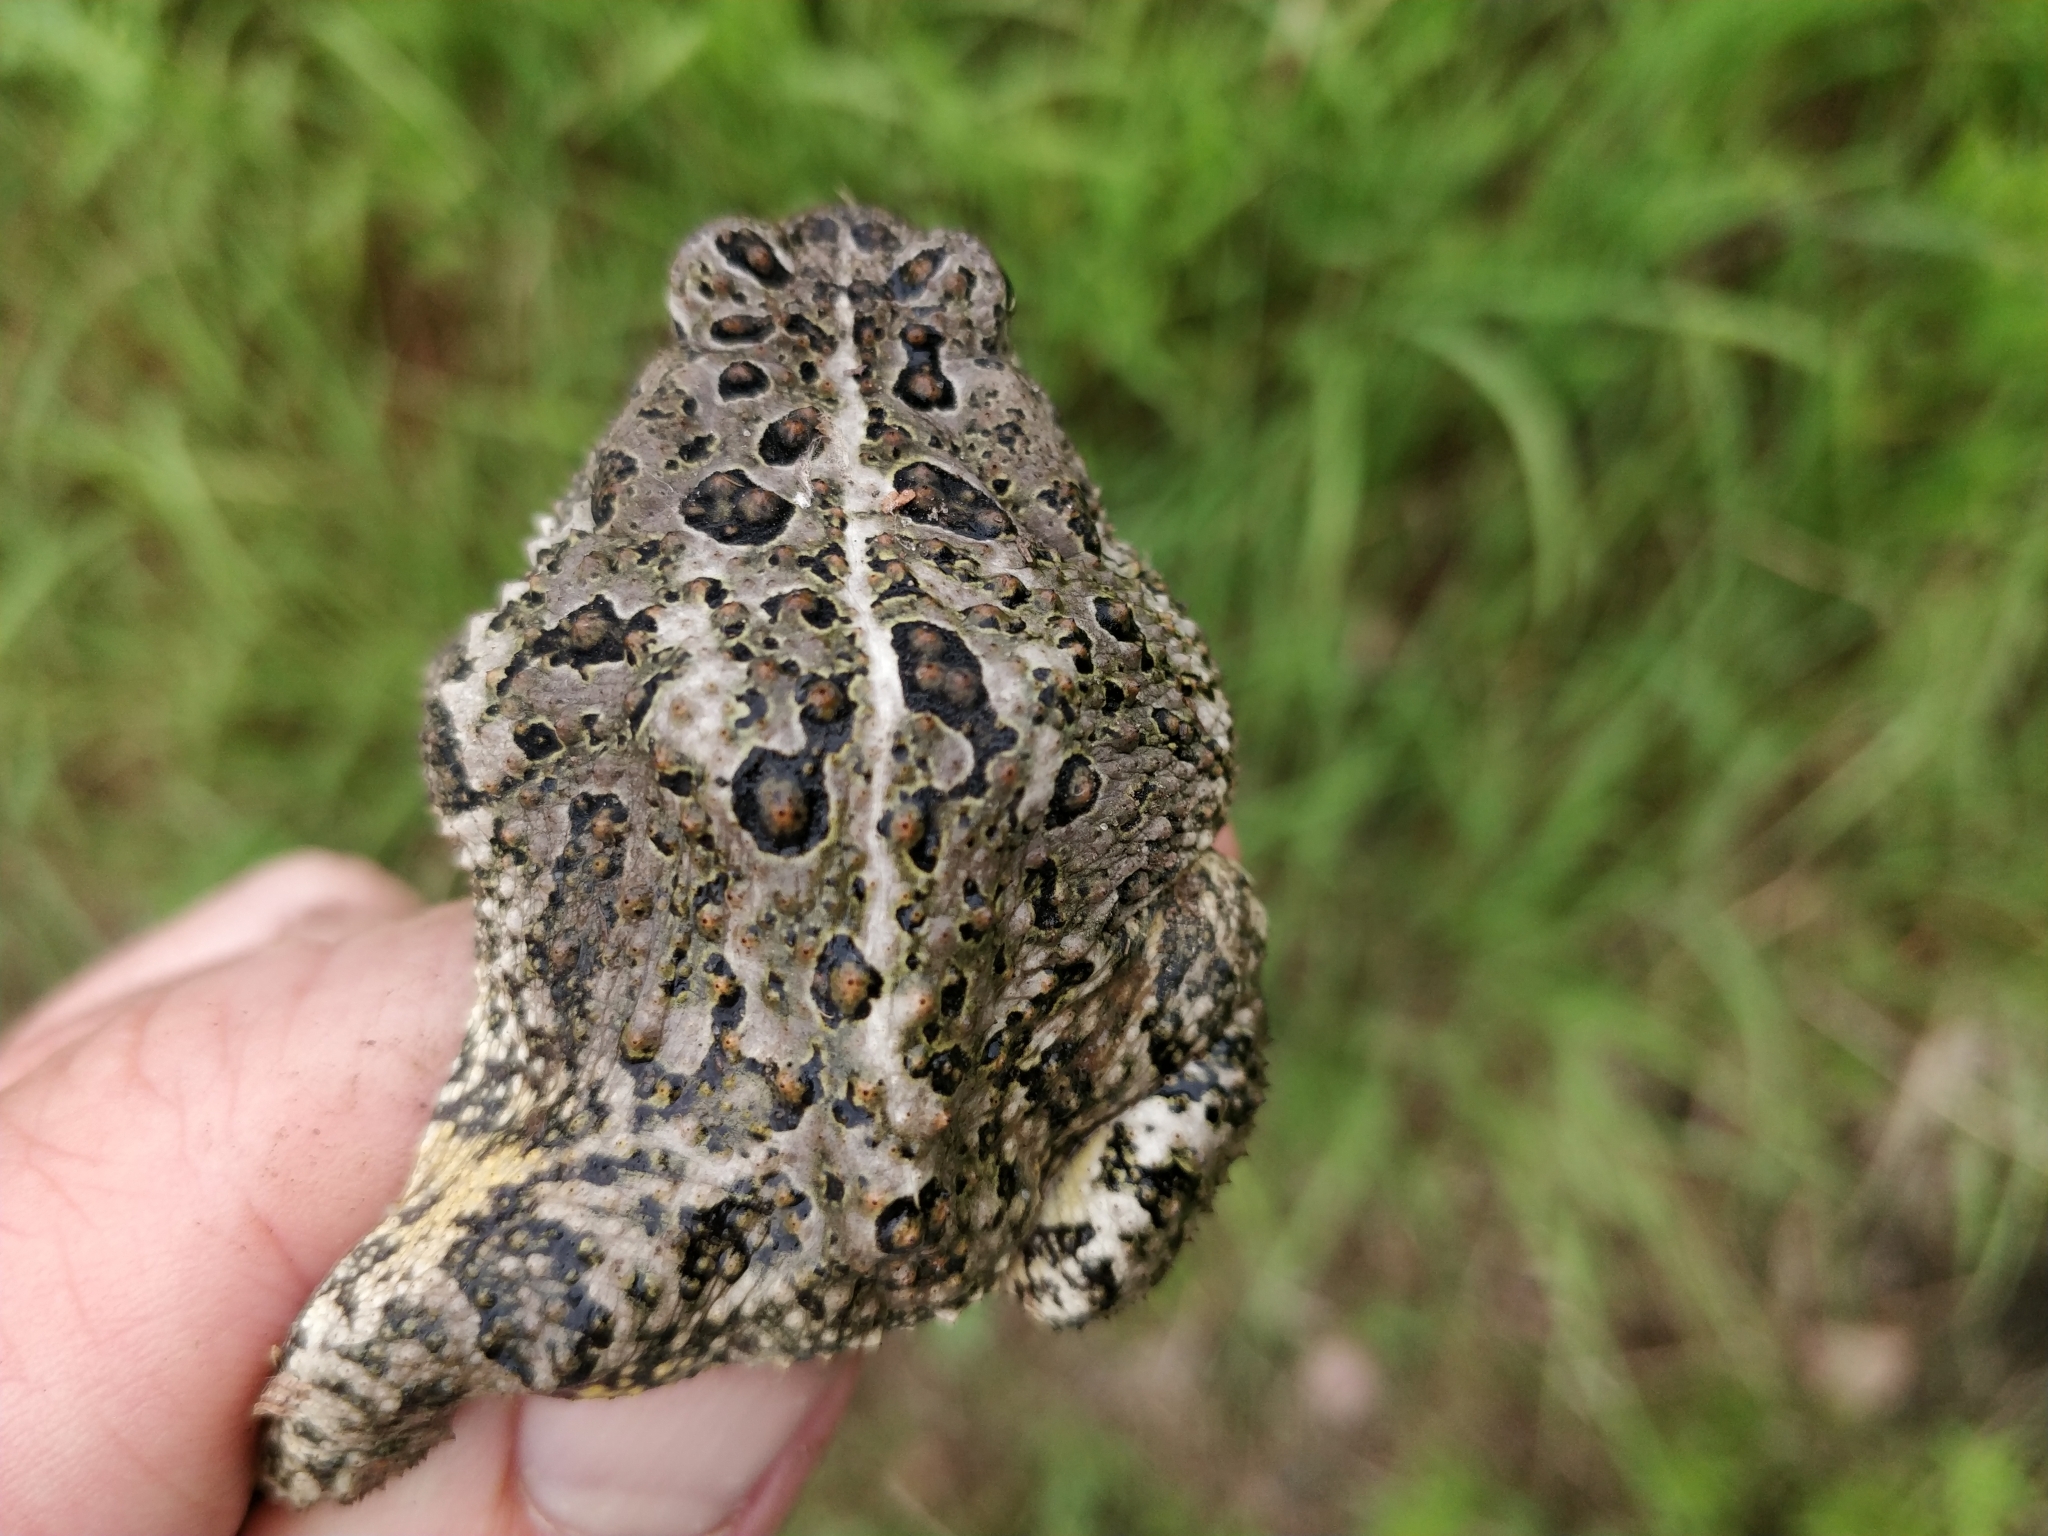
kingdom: Animalia
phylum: Chordata
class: Amphibia
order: Anura
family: Bufonidae
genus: Anaxyrus
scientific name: Anaxyrus woodhousii
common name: Woodhouse's toad
